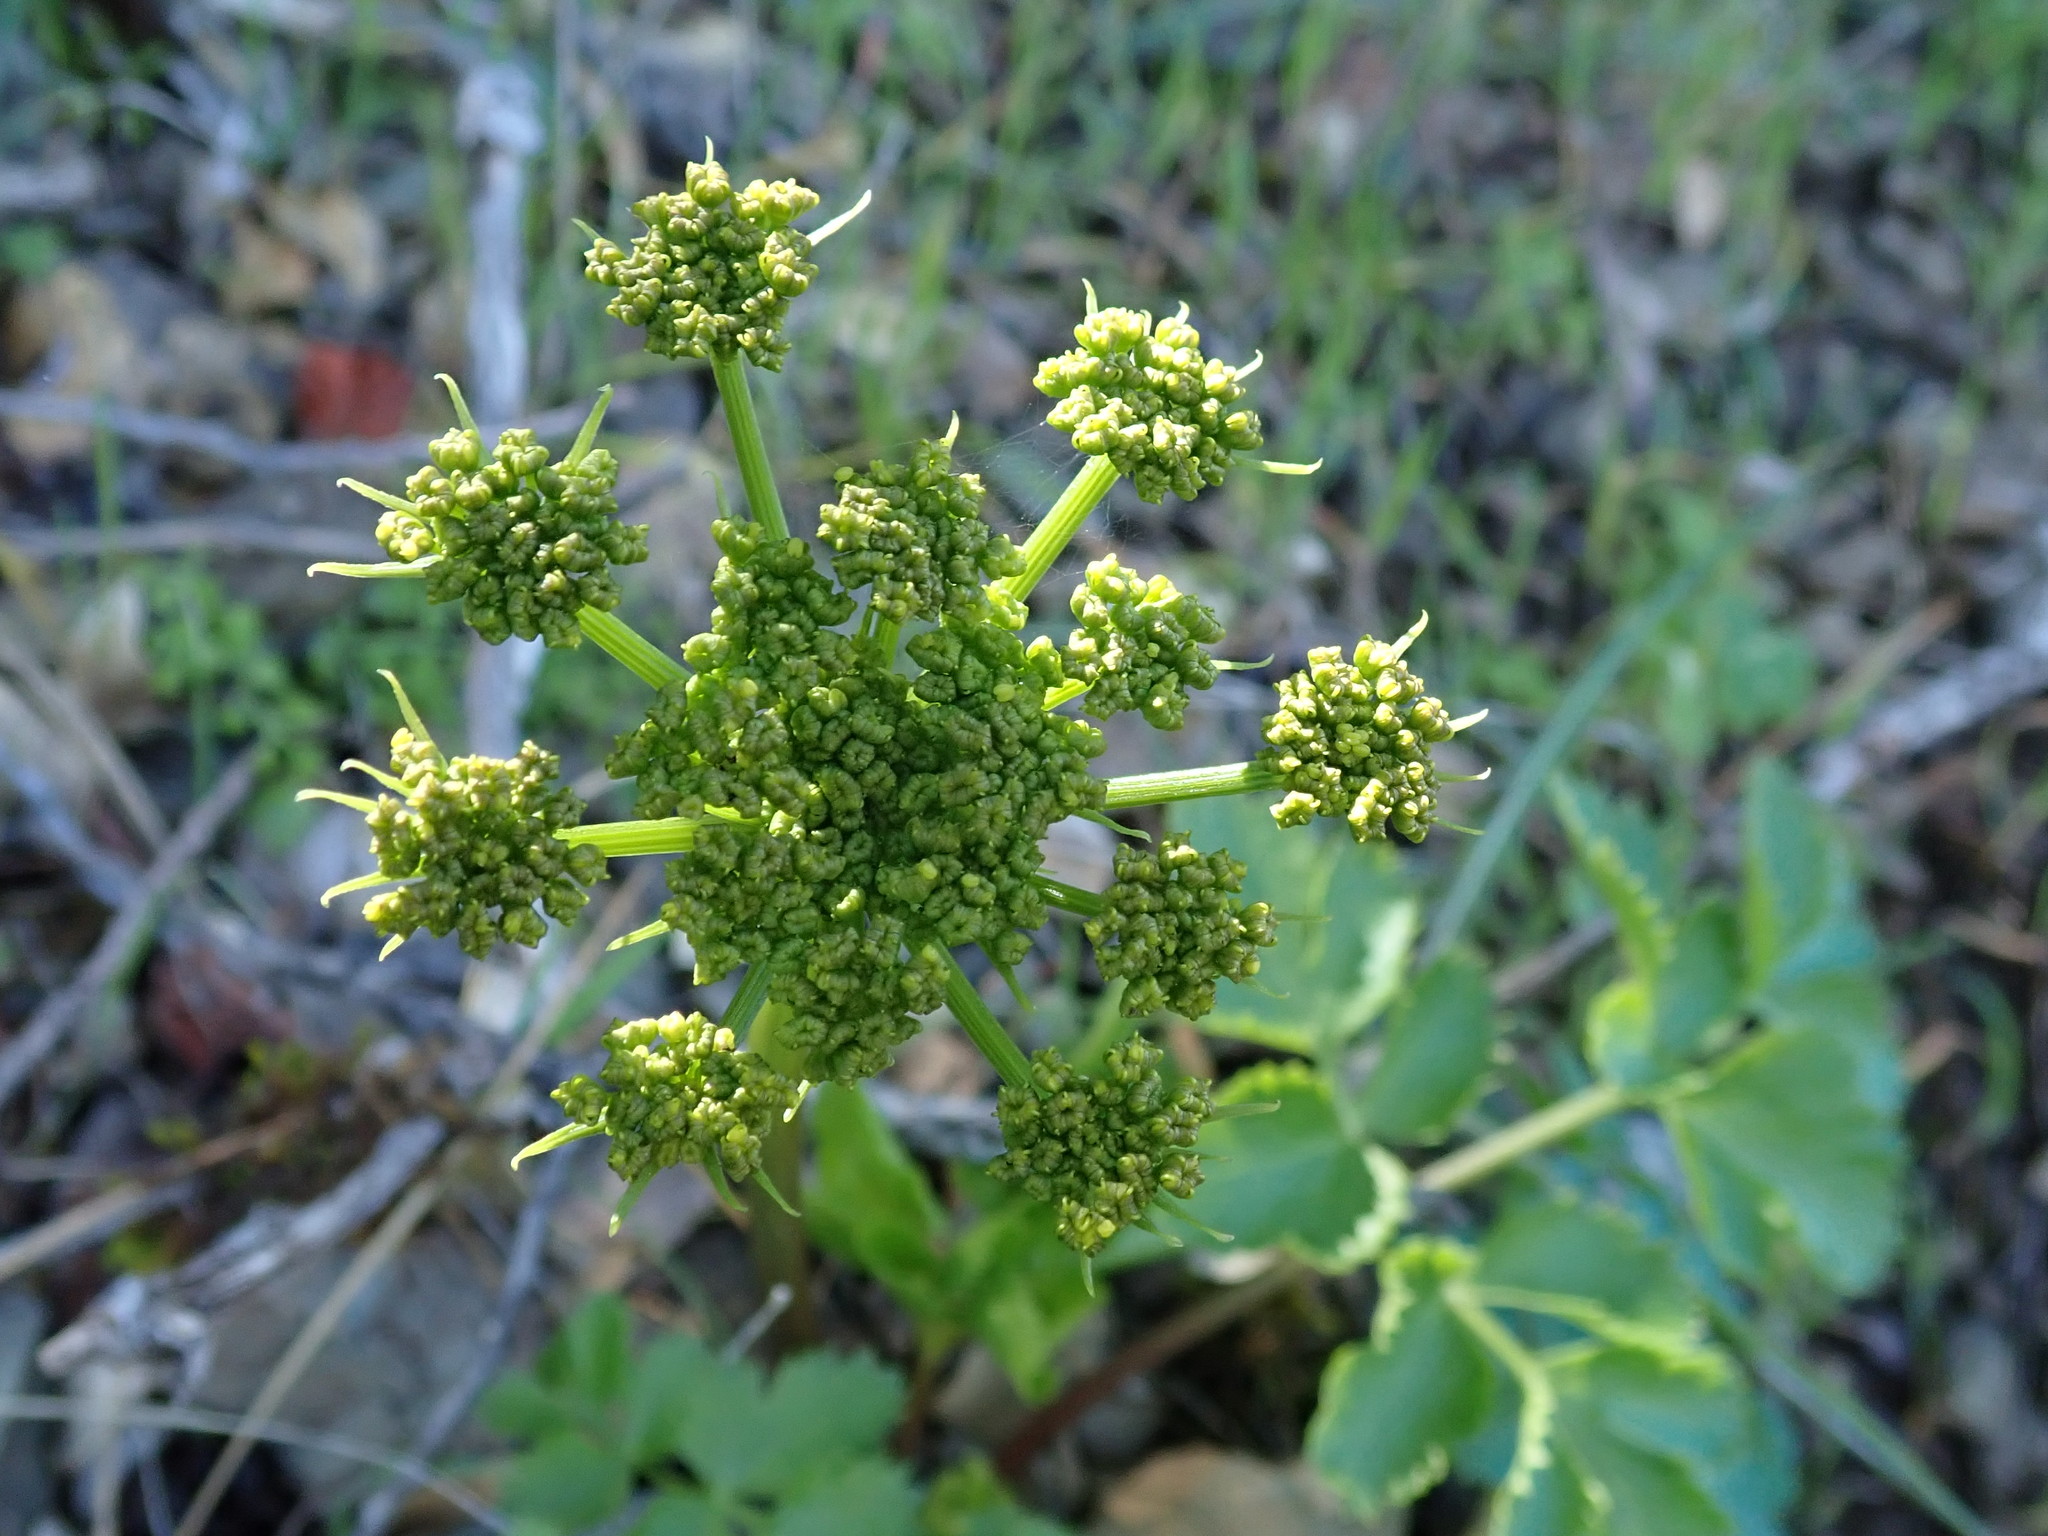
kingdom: Plantae
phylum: Tracheophyta
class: Magnoliopsida
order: Apiales
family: Apiaceae
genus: Tauschia
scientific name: Tauschia hartwegii
